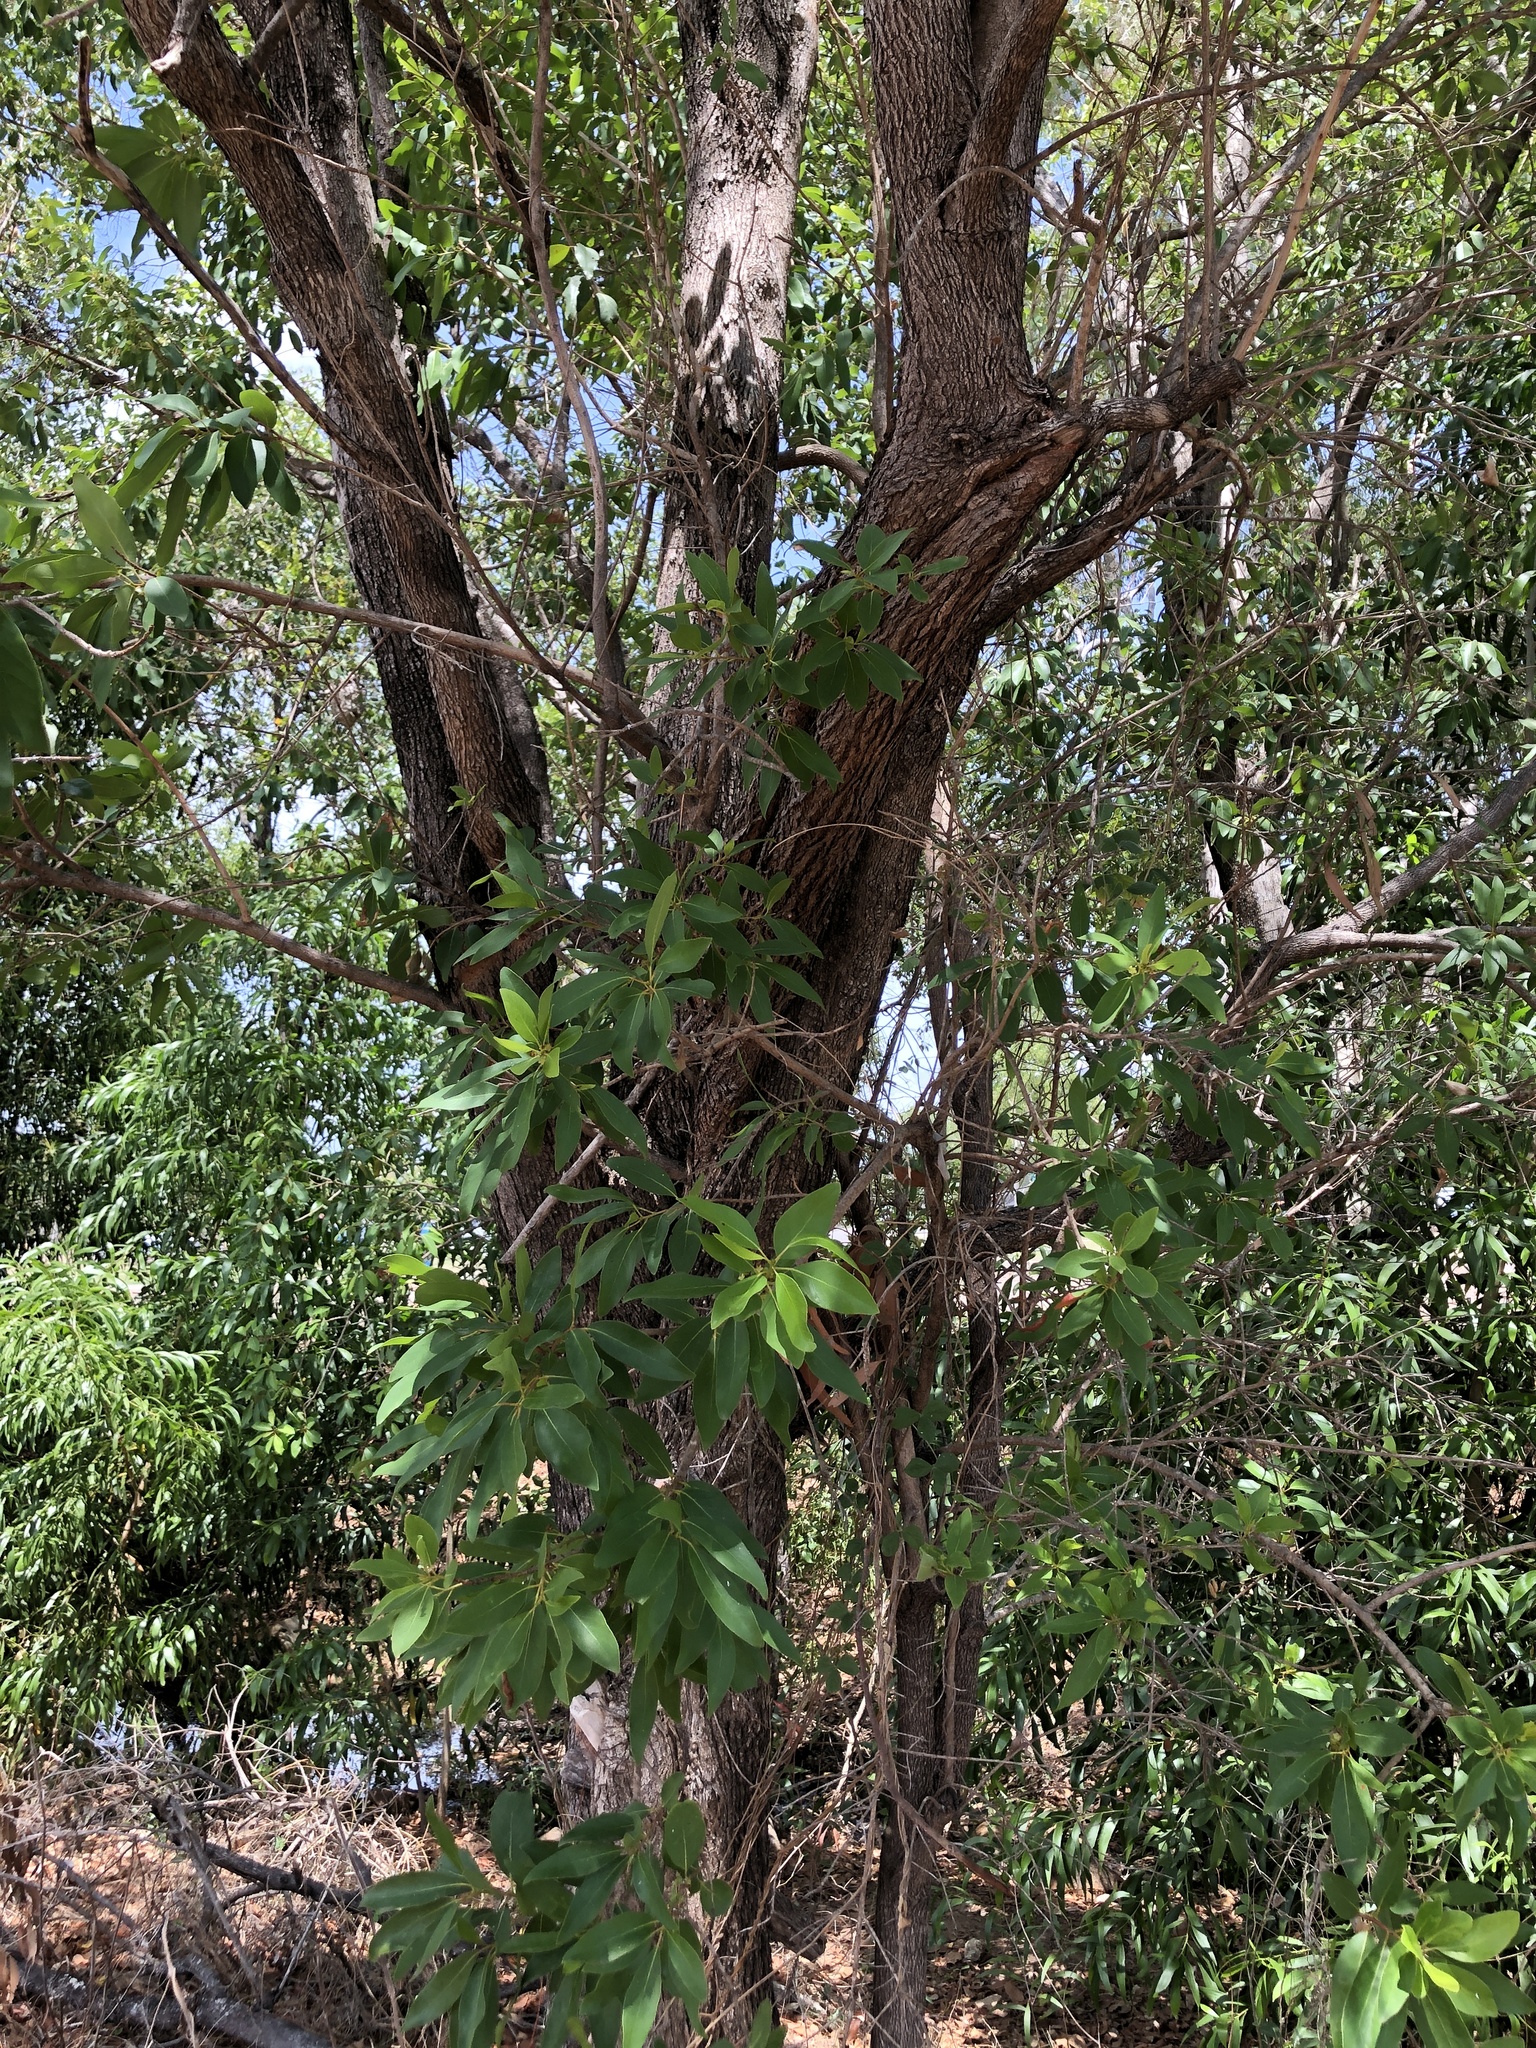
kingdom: Plantae
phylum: Tracheophyta
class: Magnoliopsida
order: Myrtales
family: Myrtaceae
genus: Lophostemon
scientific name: Lophostemon grandiflorus
